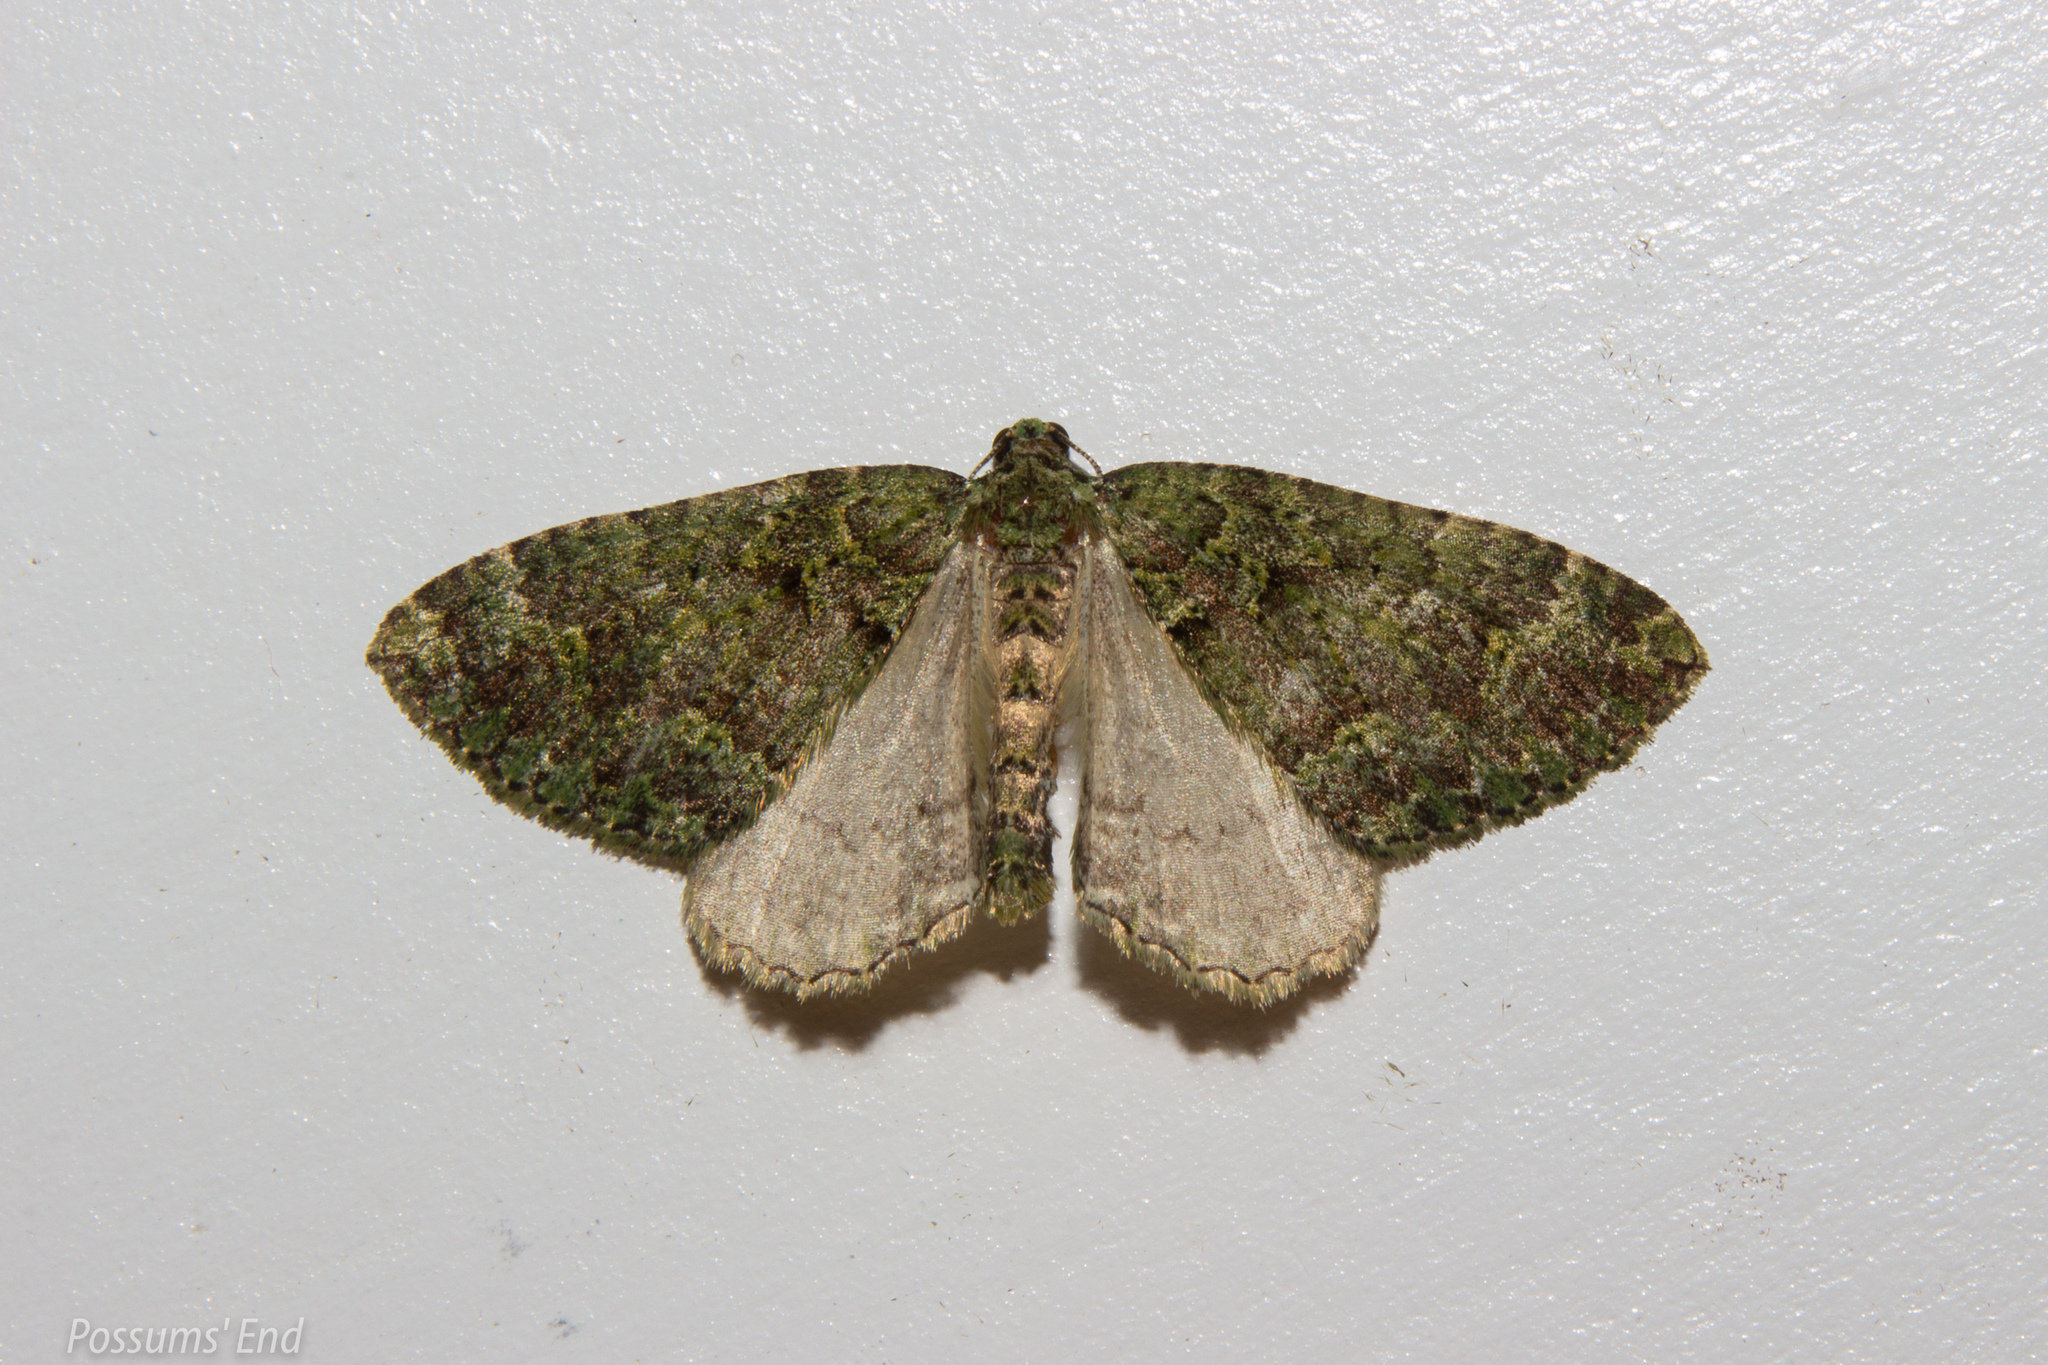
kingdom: Animalia
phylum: Arthropoda
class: Insecta
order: Lepidoptera
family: Geometridae
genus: Austrocidaria
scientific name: Austrocidaria callichlora
